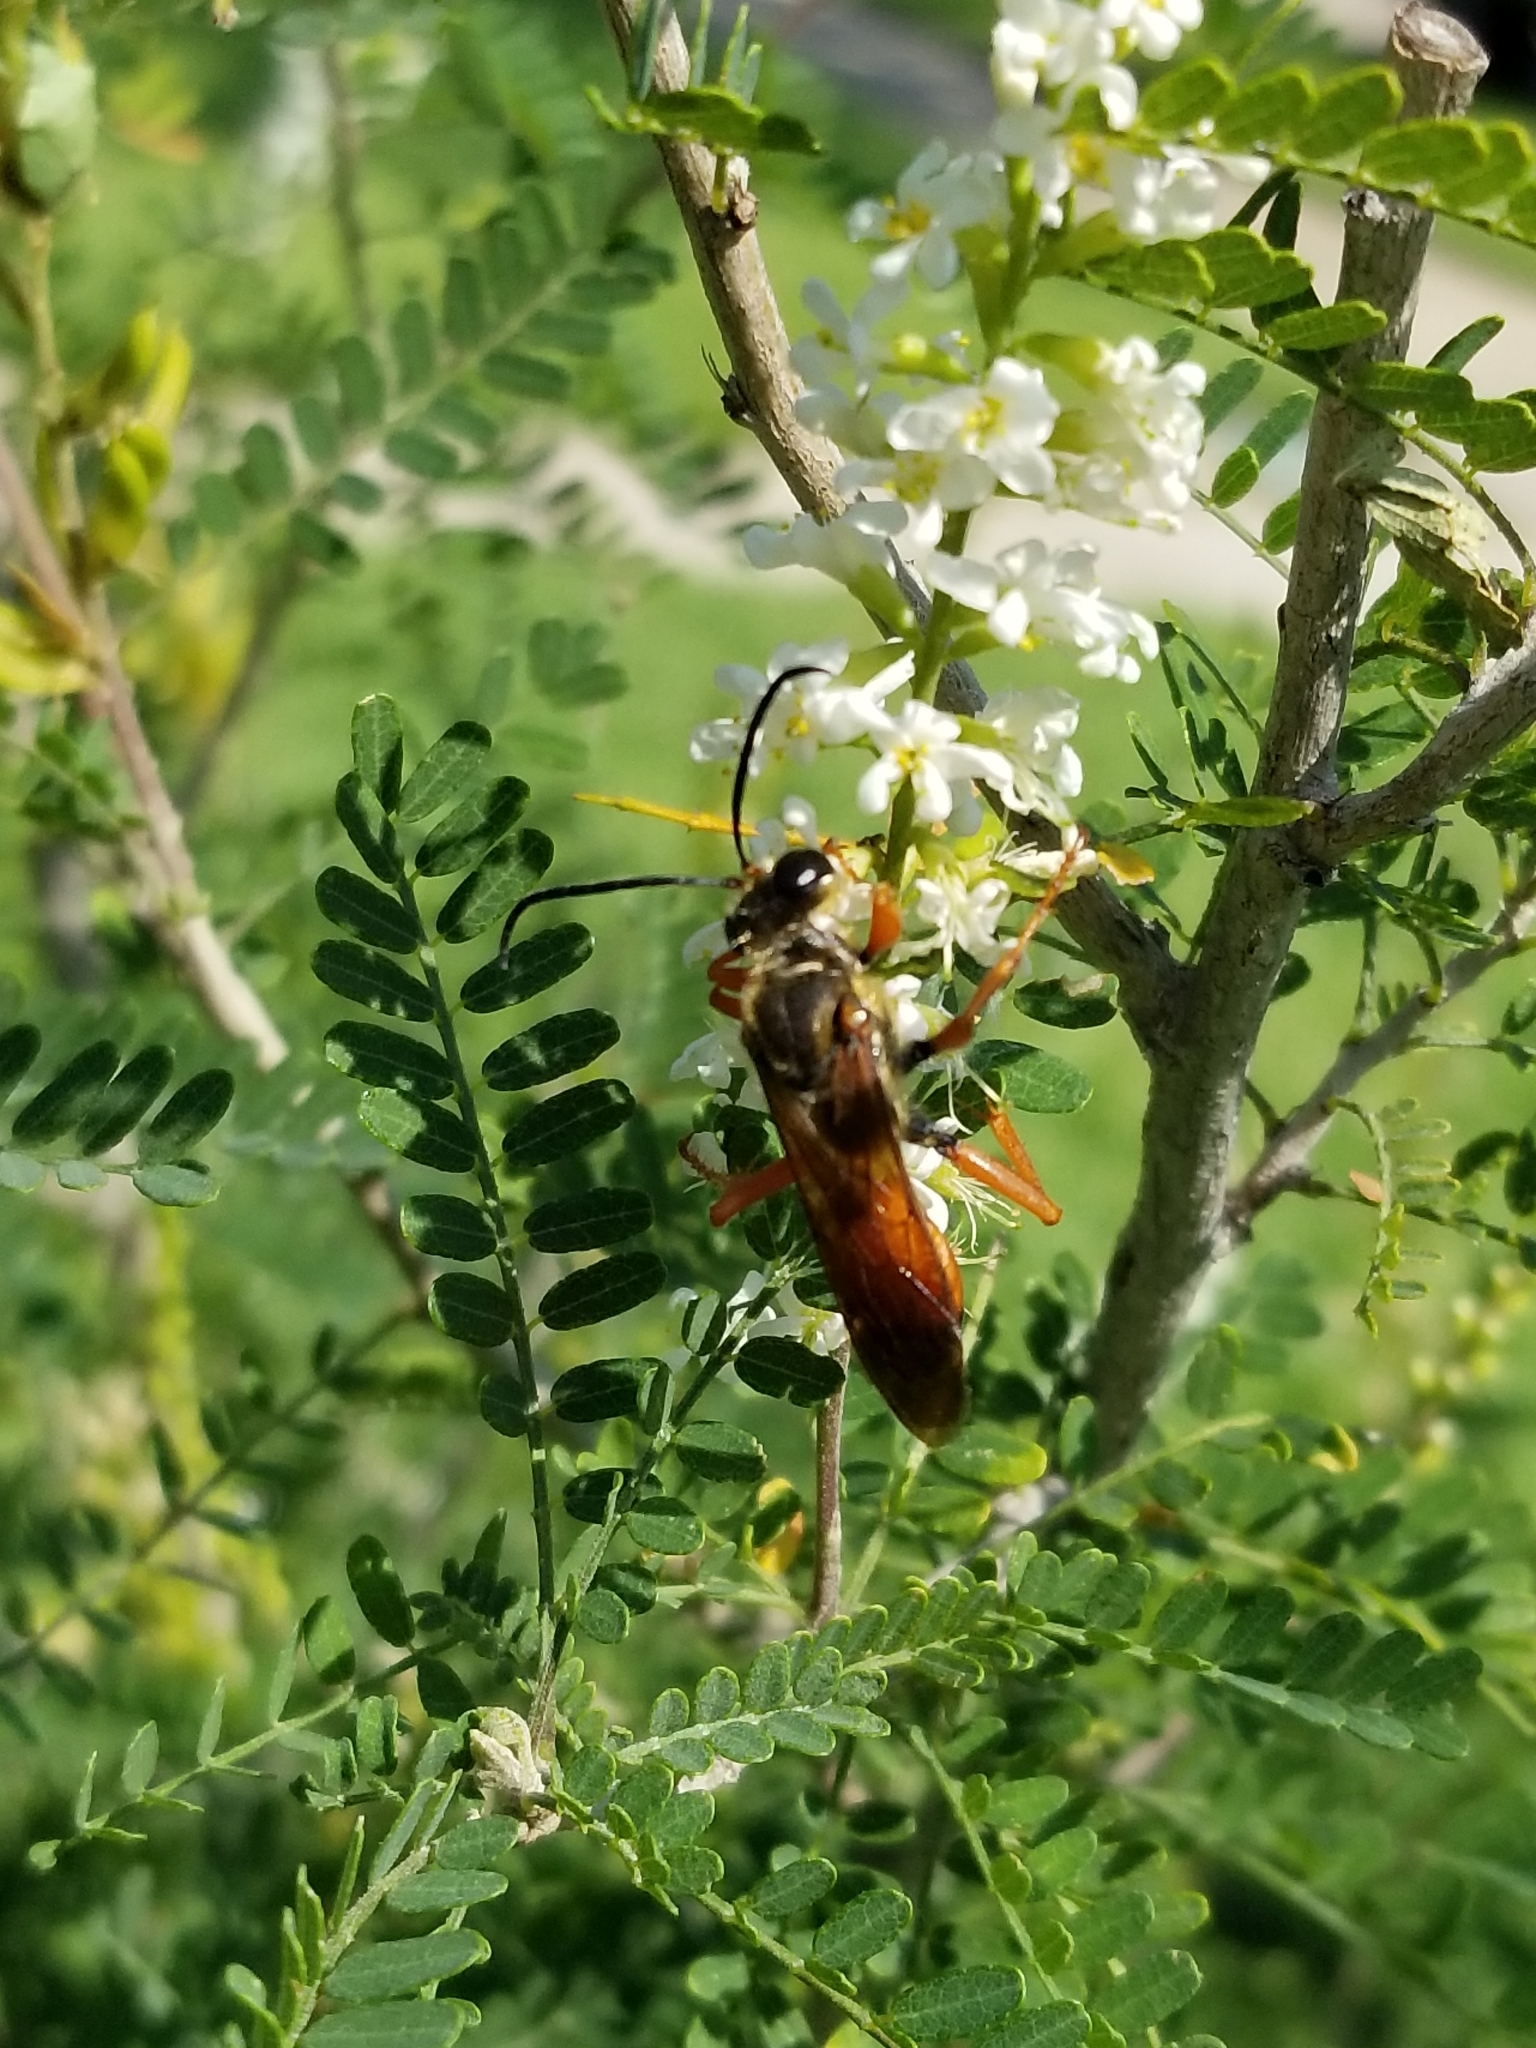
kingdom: Animalia
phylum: Arthropoda
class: Insecta
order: Hymenoptera
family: Sphecidae
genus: Sphex
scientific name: Sphex ichneumoneus
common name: Great golden digger wasp
